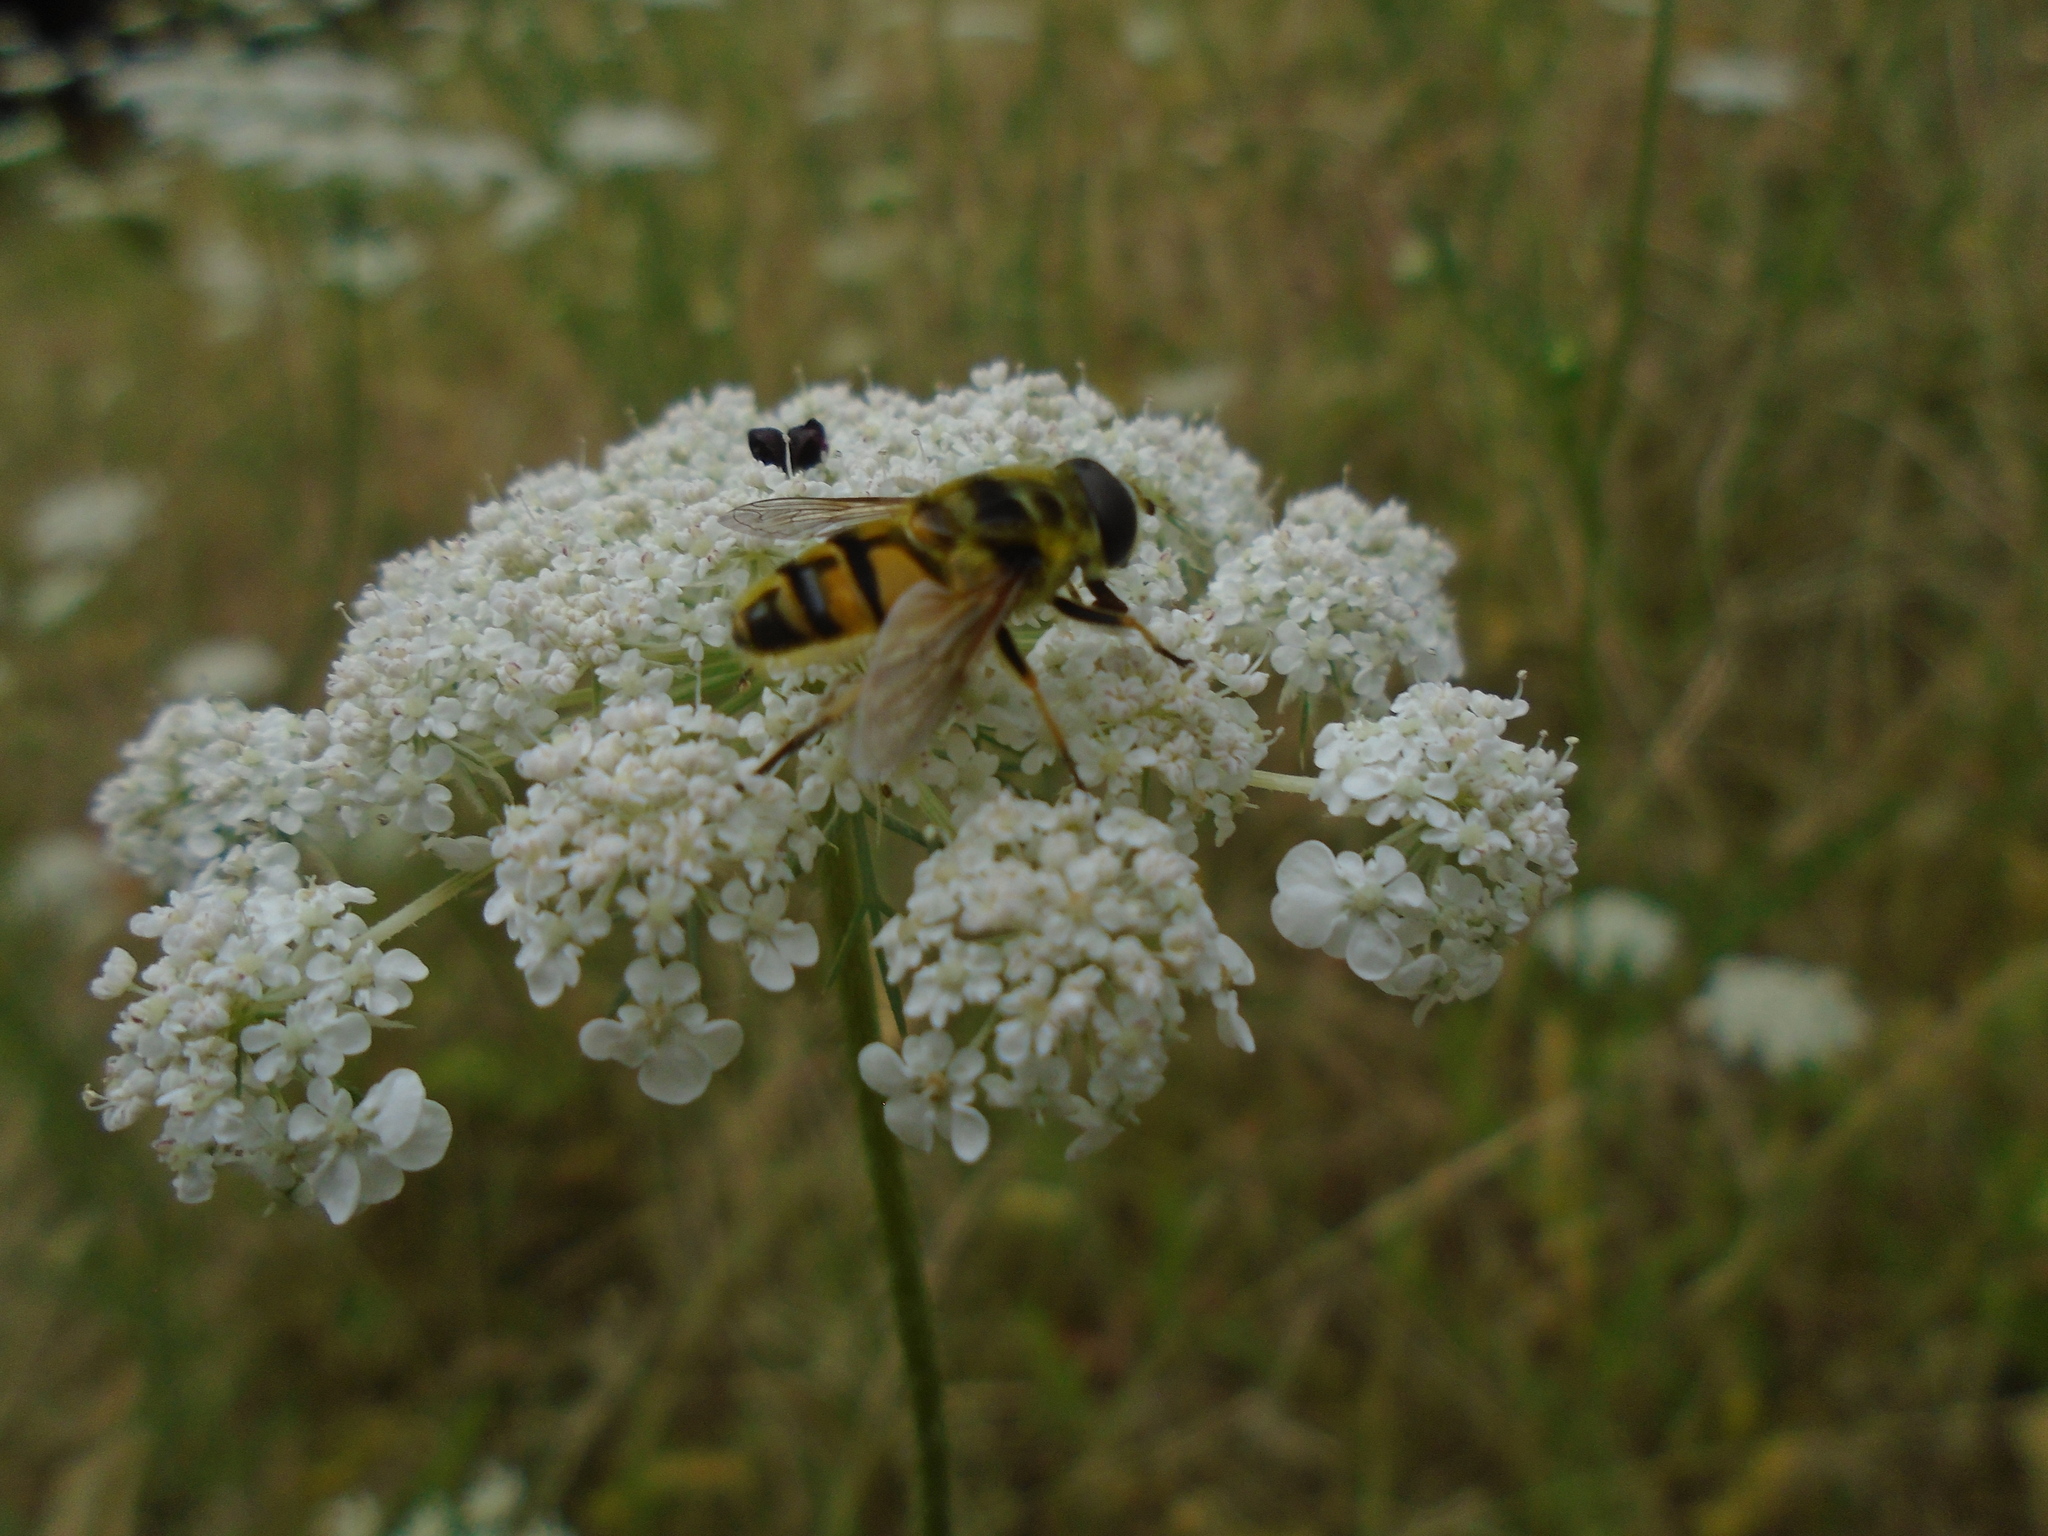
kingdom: Animalia
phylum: Arthropoda
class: Insecta
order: Diptera
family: Syrphidae
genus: Myathropa
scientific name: Myathropa florea
